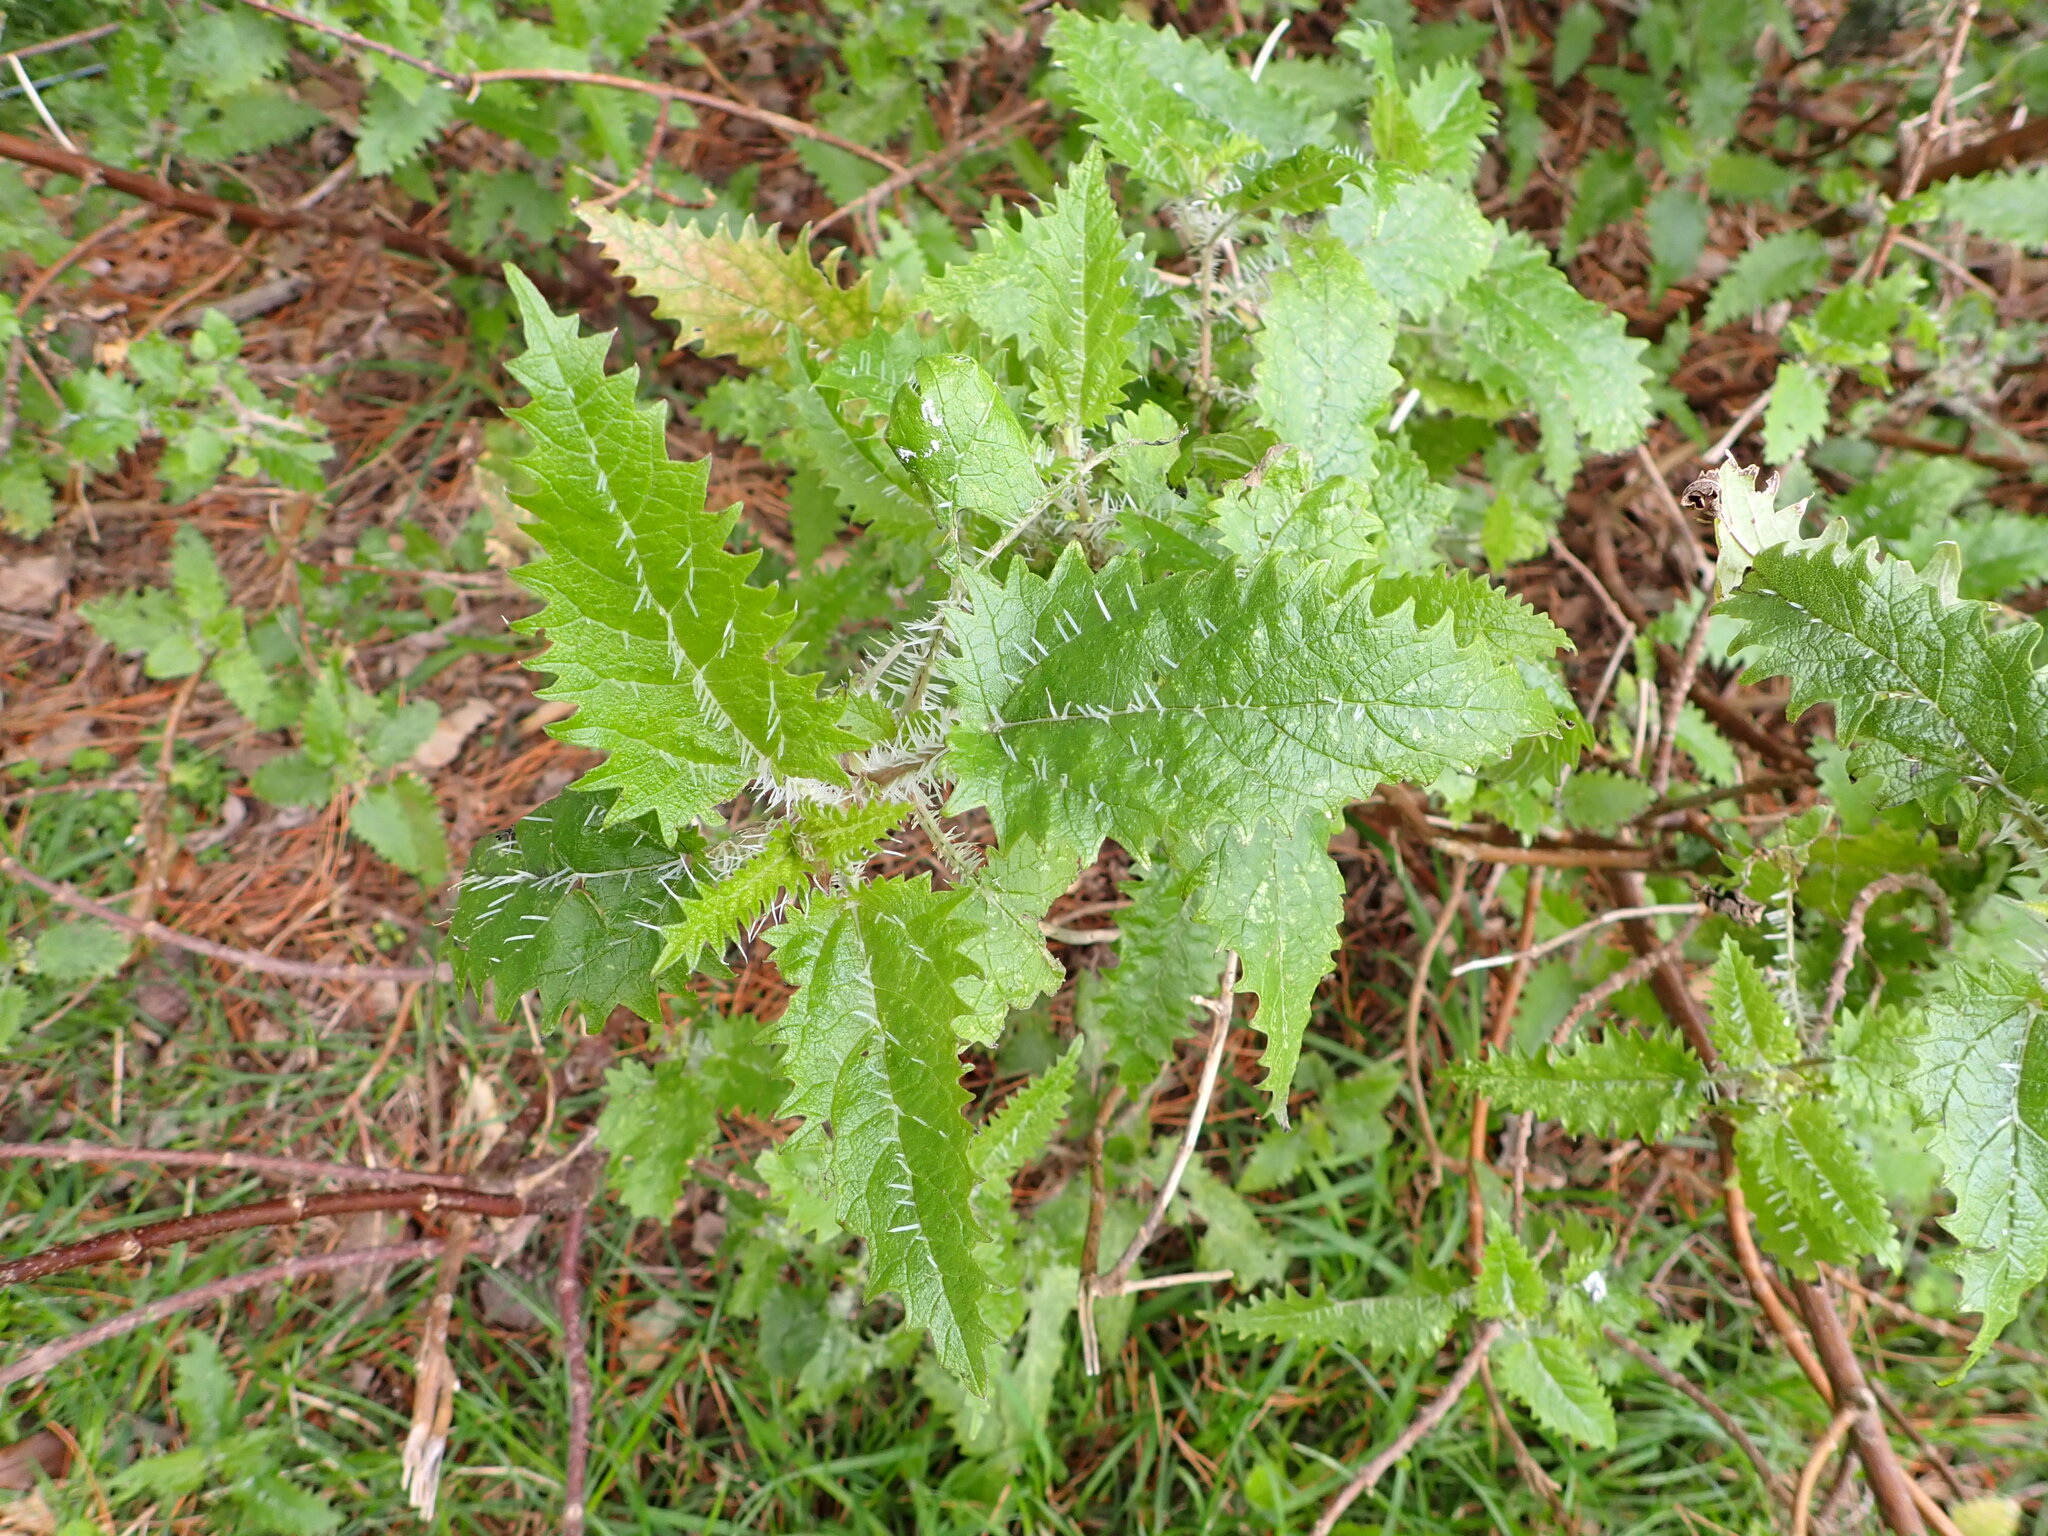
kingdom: Plantae
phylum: Tracheophyta
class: Magnoliopsida
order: Rosales
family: Urticaceae
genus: Urtica
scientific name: Urtica ferox
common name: Tree nettle
